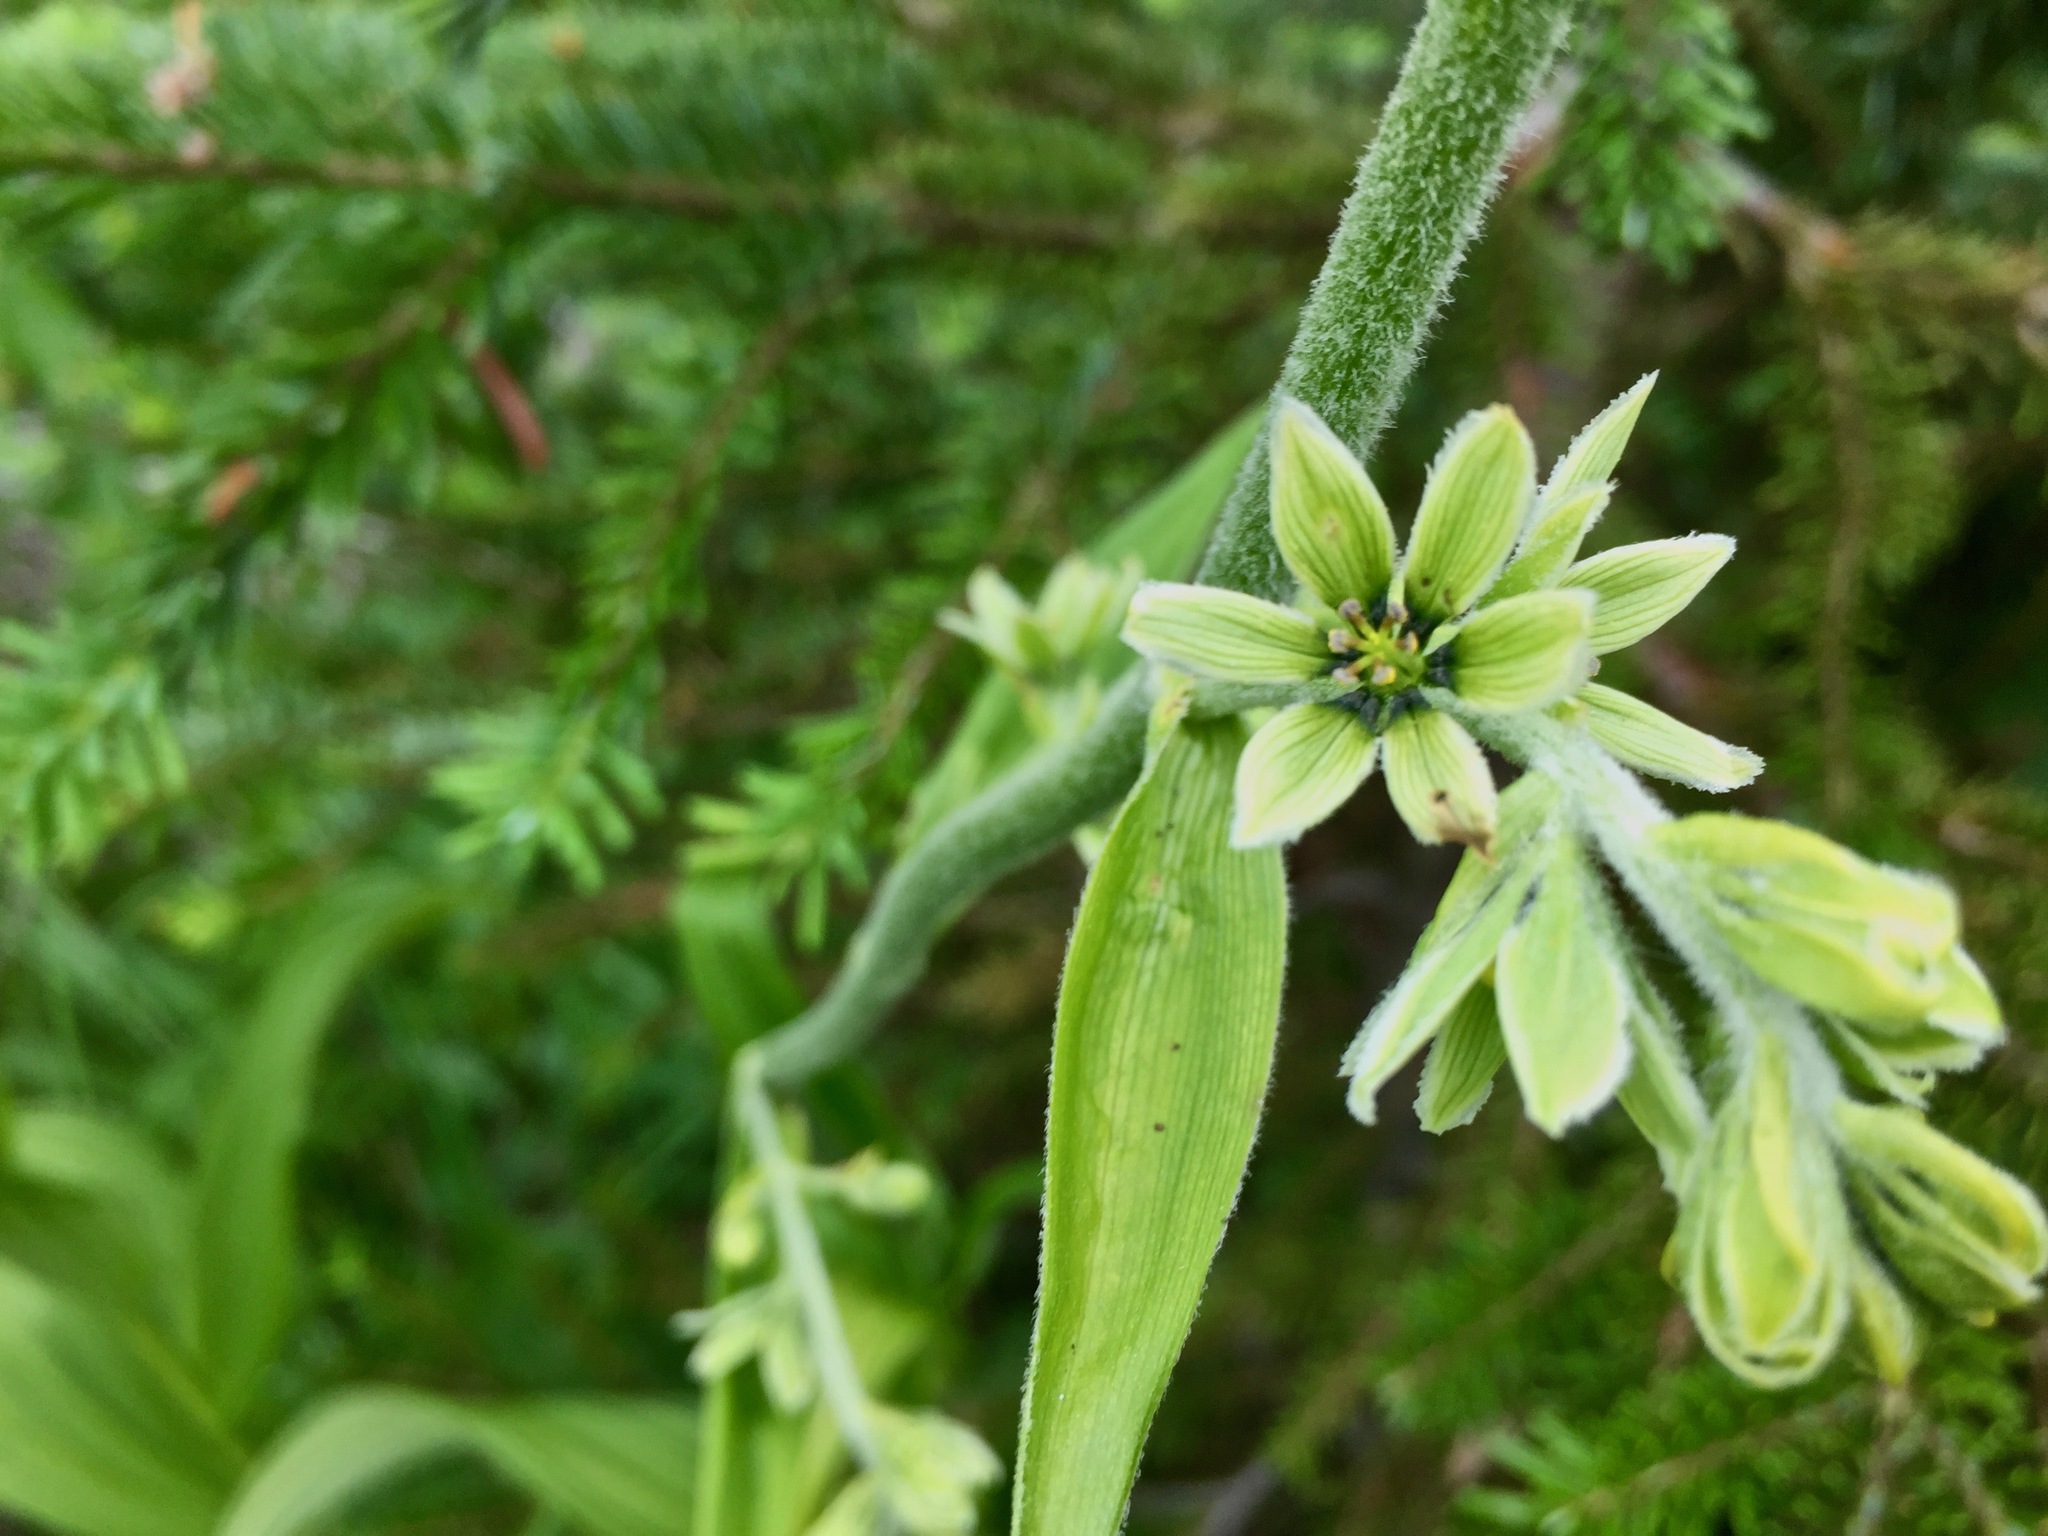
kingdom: Plantae
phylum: Tracheophyta
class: Liliopsida
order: Liliales
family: Melanthiaceae
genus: Veratrum
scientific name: Veratrum viride
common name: American false hellebore
